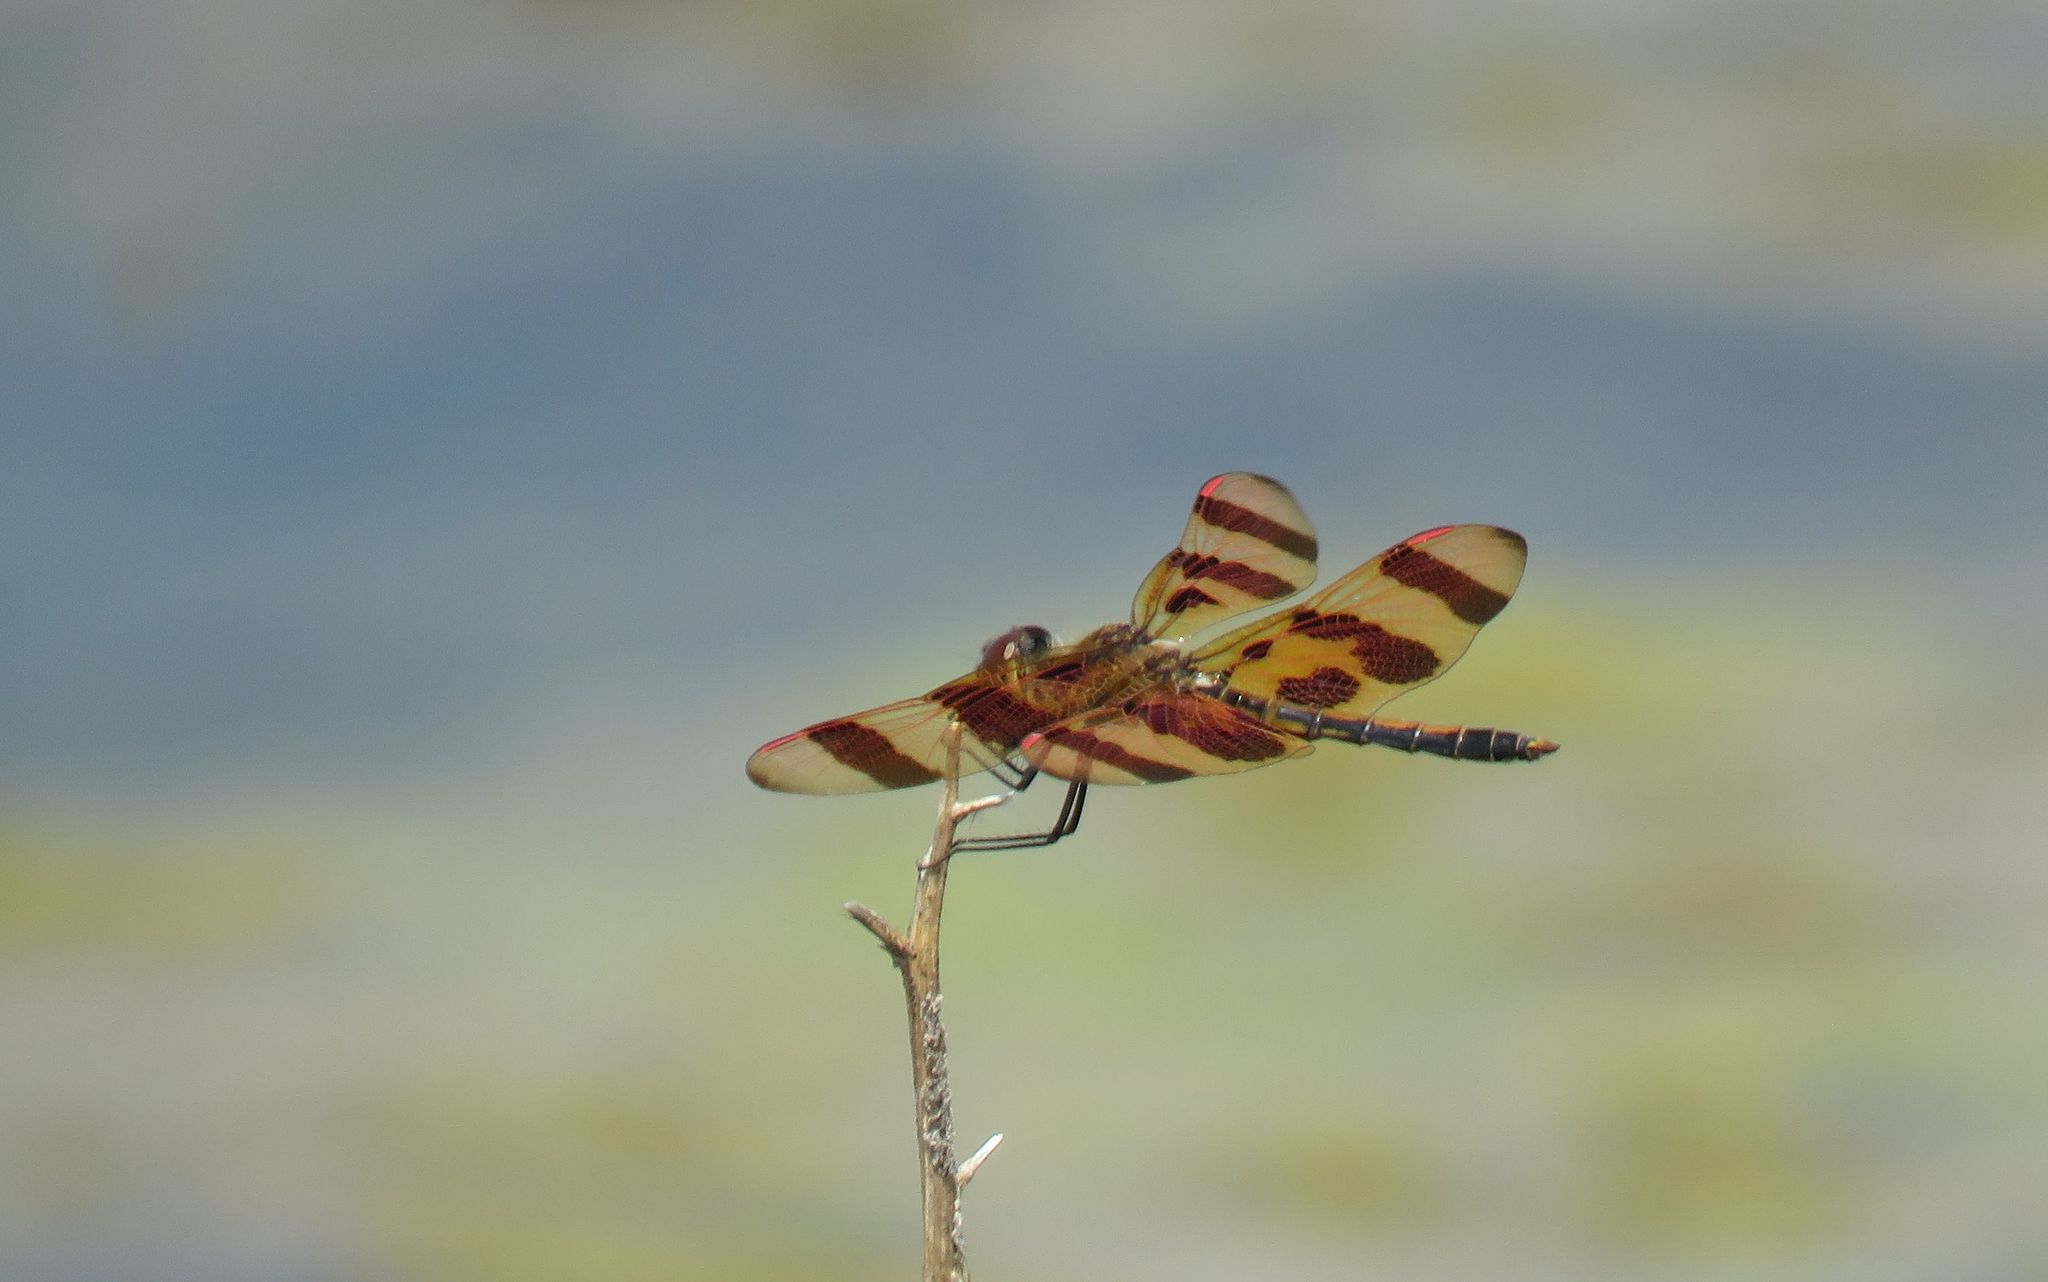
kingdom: Animalia
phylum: Arthropoda
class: Insecta
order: Odonata
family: Libellulidae
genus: Celithemis
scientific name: Celithemis eponina
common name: Halloween pennant
